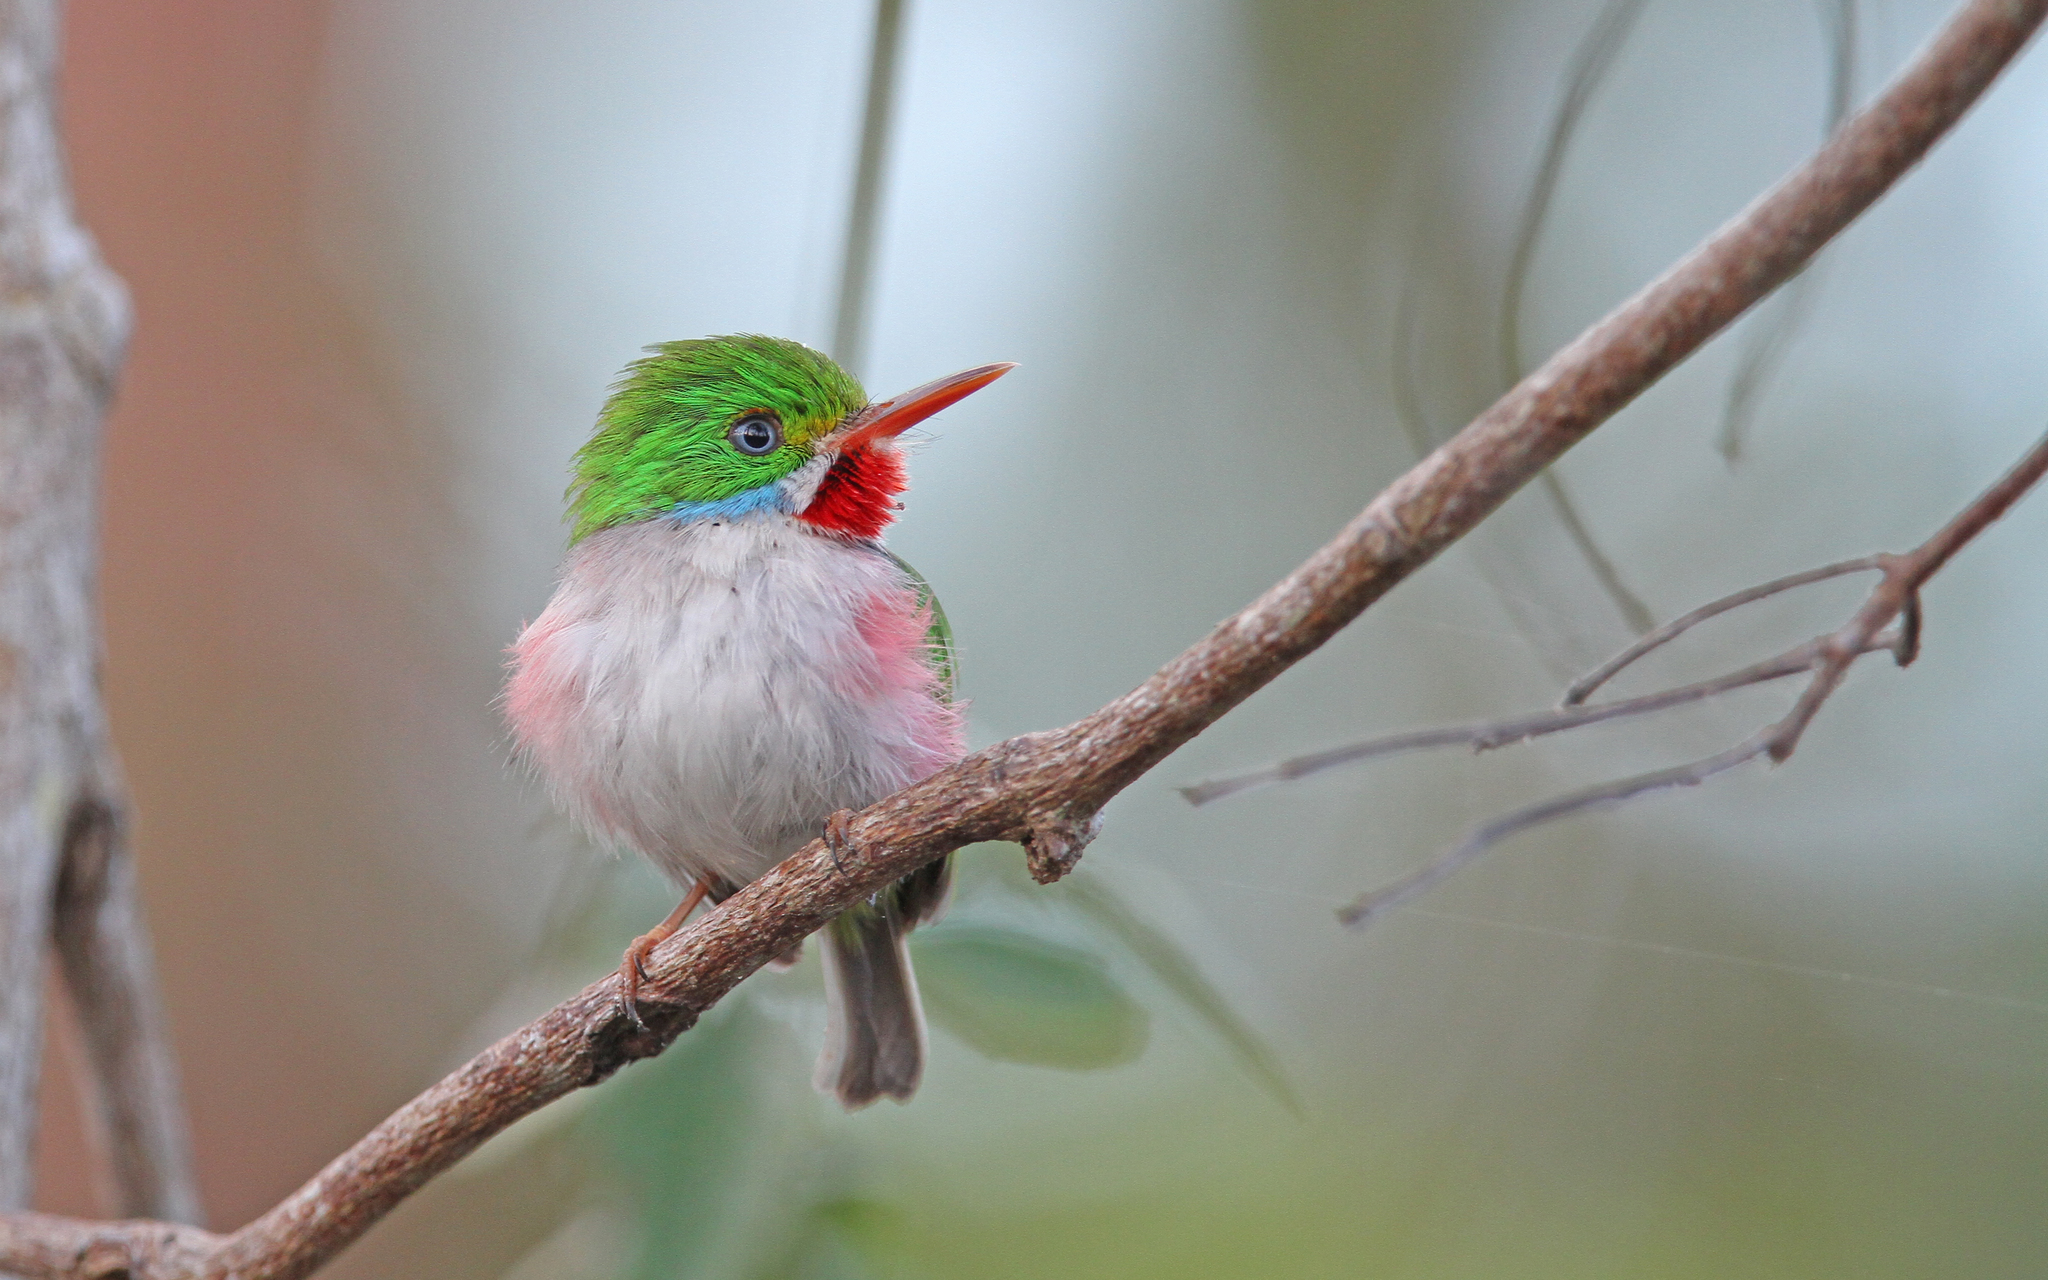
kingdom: Animalia
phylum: Chordata
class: Aves
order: Coraciiformes
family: Todidae
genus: Todus
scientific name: Todus multicolor
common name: Cuban tody
